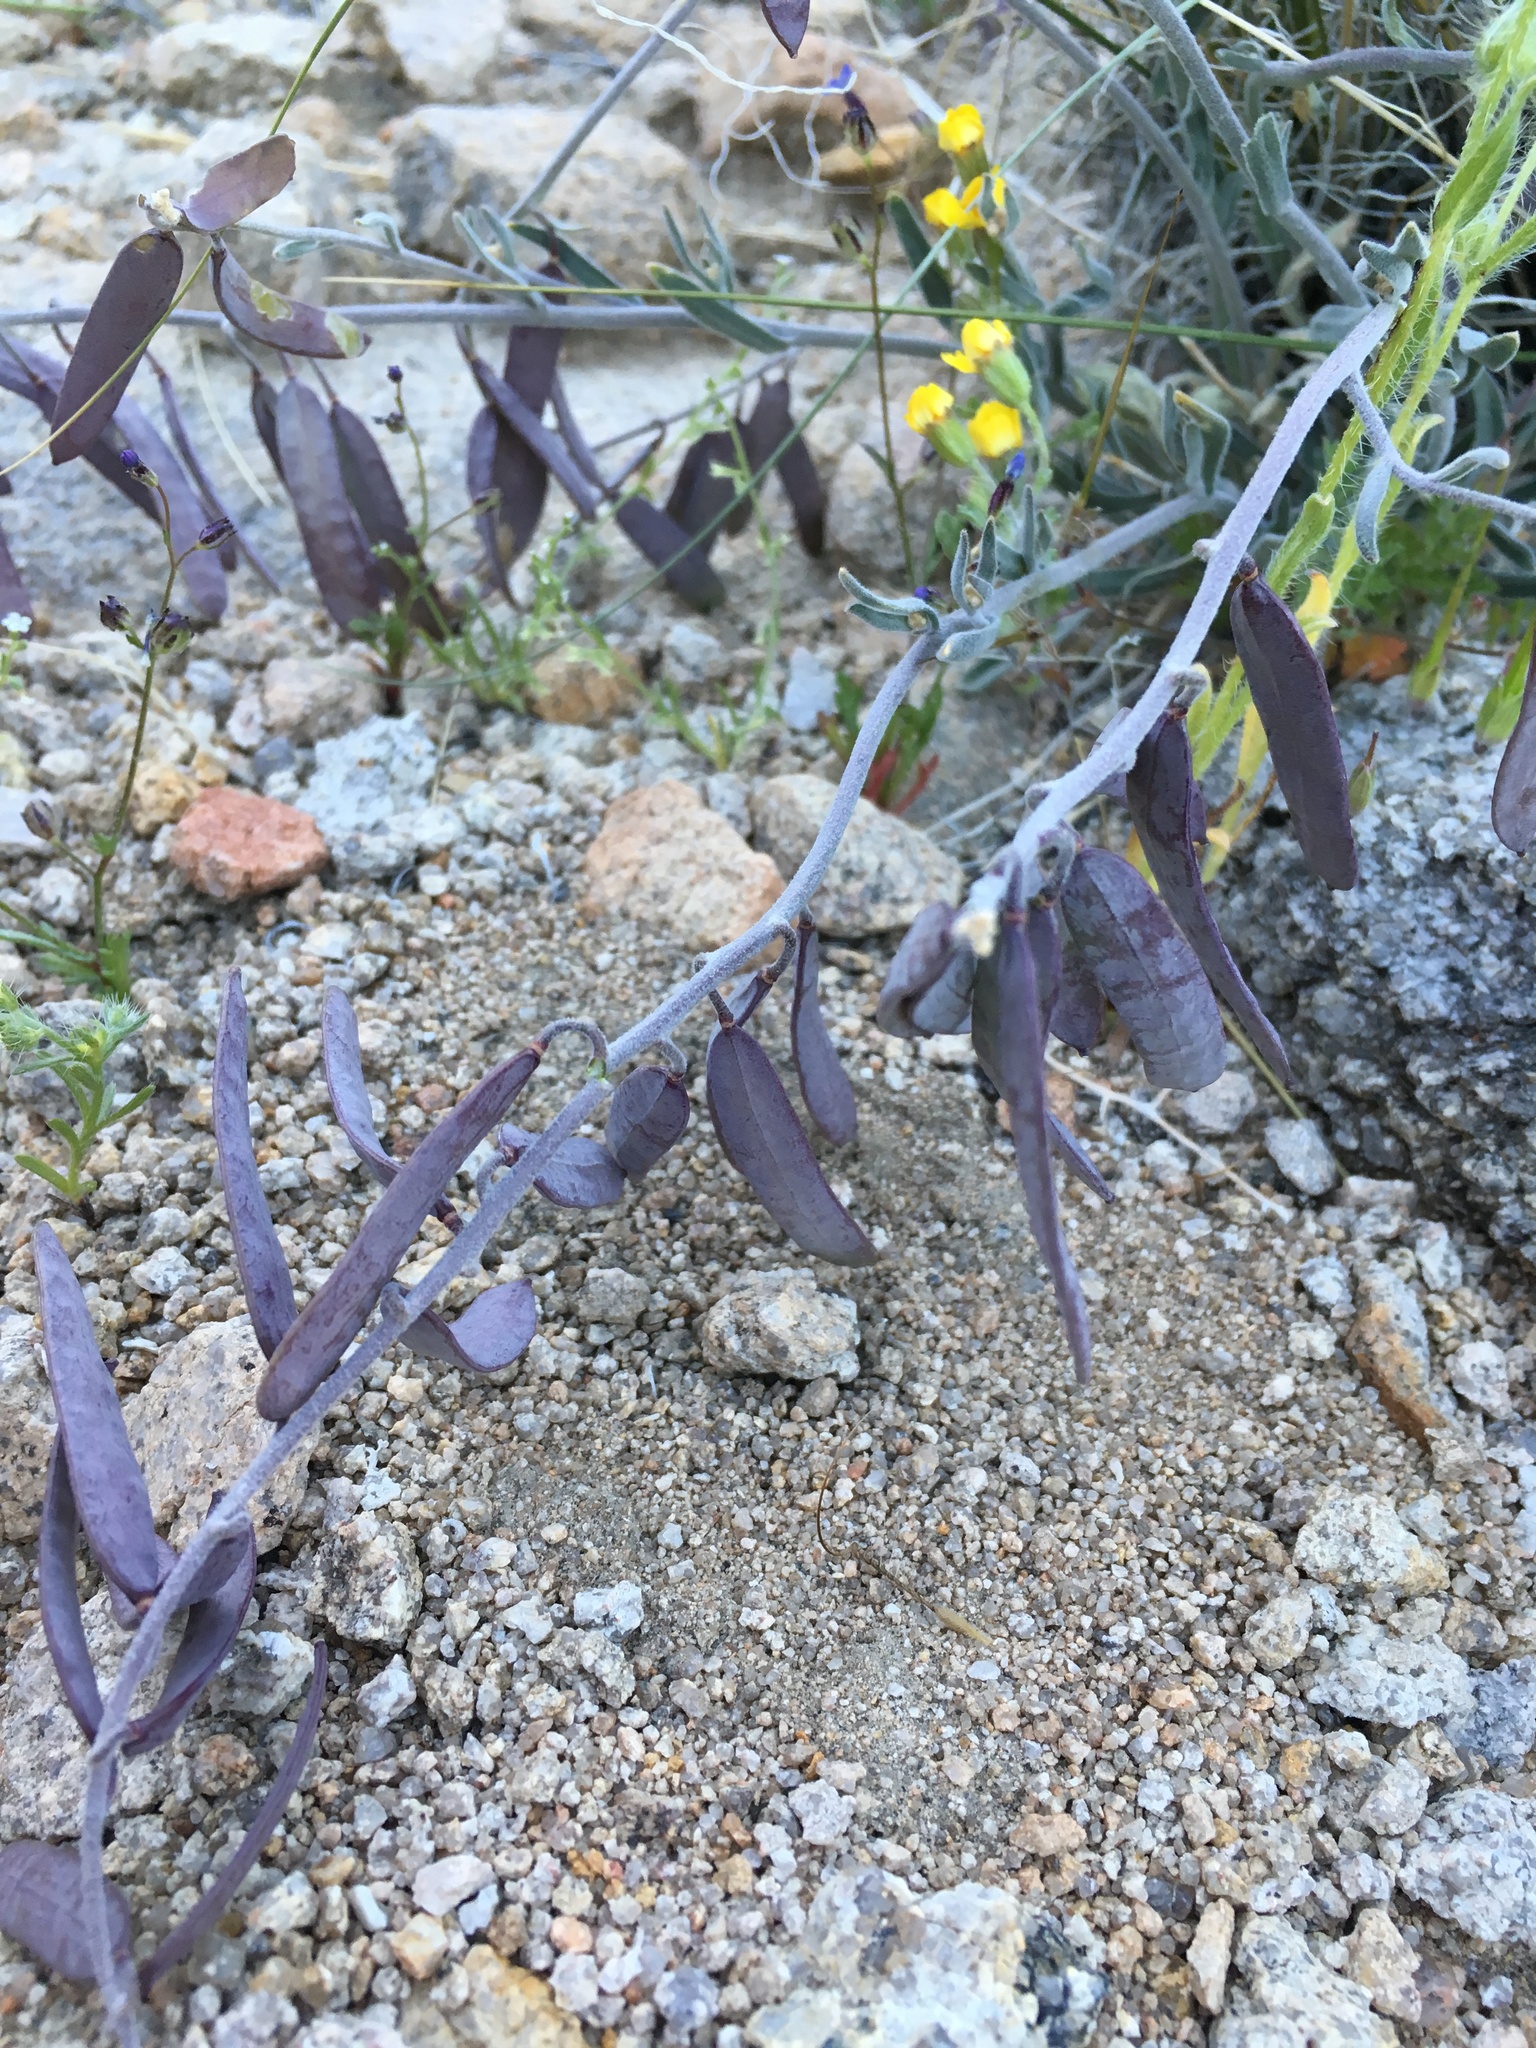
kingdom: Plantae
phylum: Tracheophyta
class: Magnoliopsida
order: Brassicales
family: Brassicaceae
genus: Boechera
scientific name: Boechera glaucovalvula
